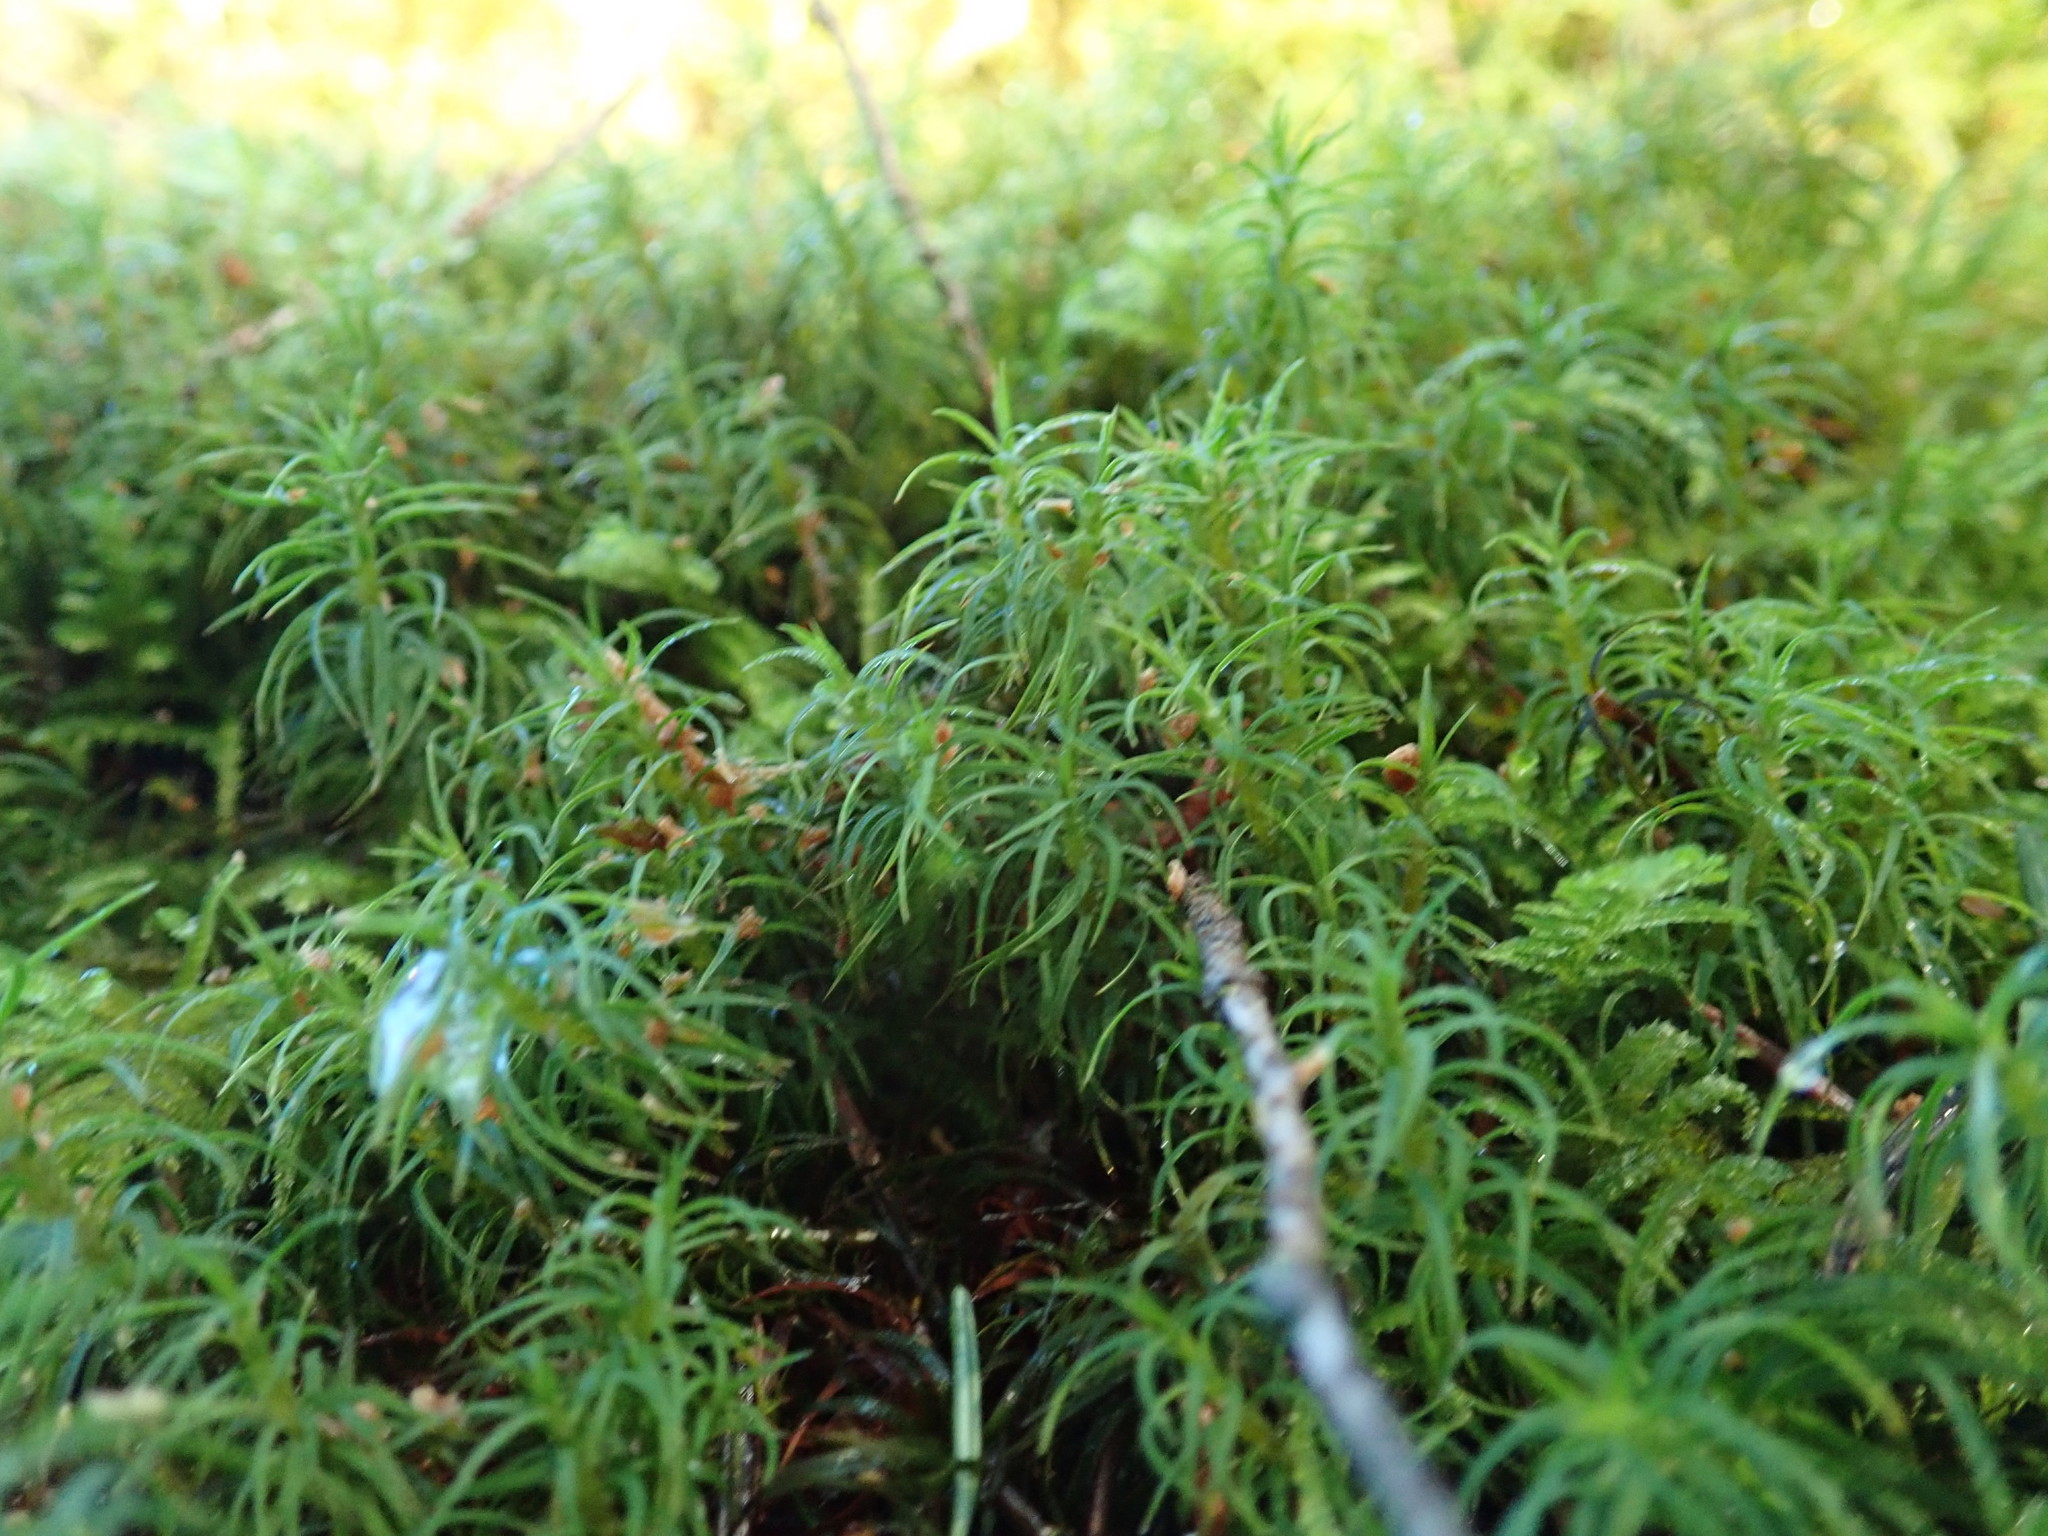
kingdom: Plantae
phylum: Bryophyta
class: Polytrichopsida
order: Polytrichales
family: Polytrichaceae
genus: Polytrichastrum
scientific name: Polytrichastrum alpinum
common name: Alpine haircap
